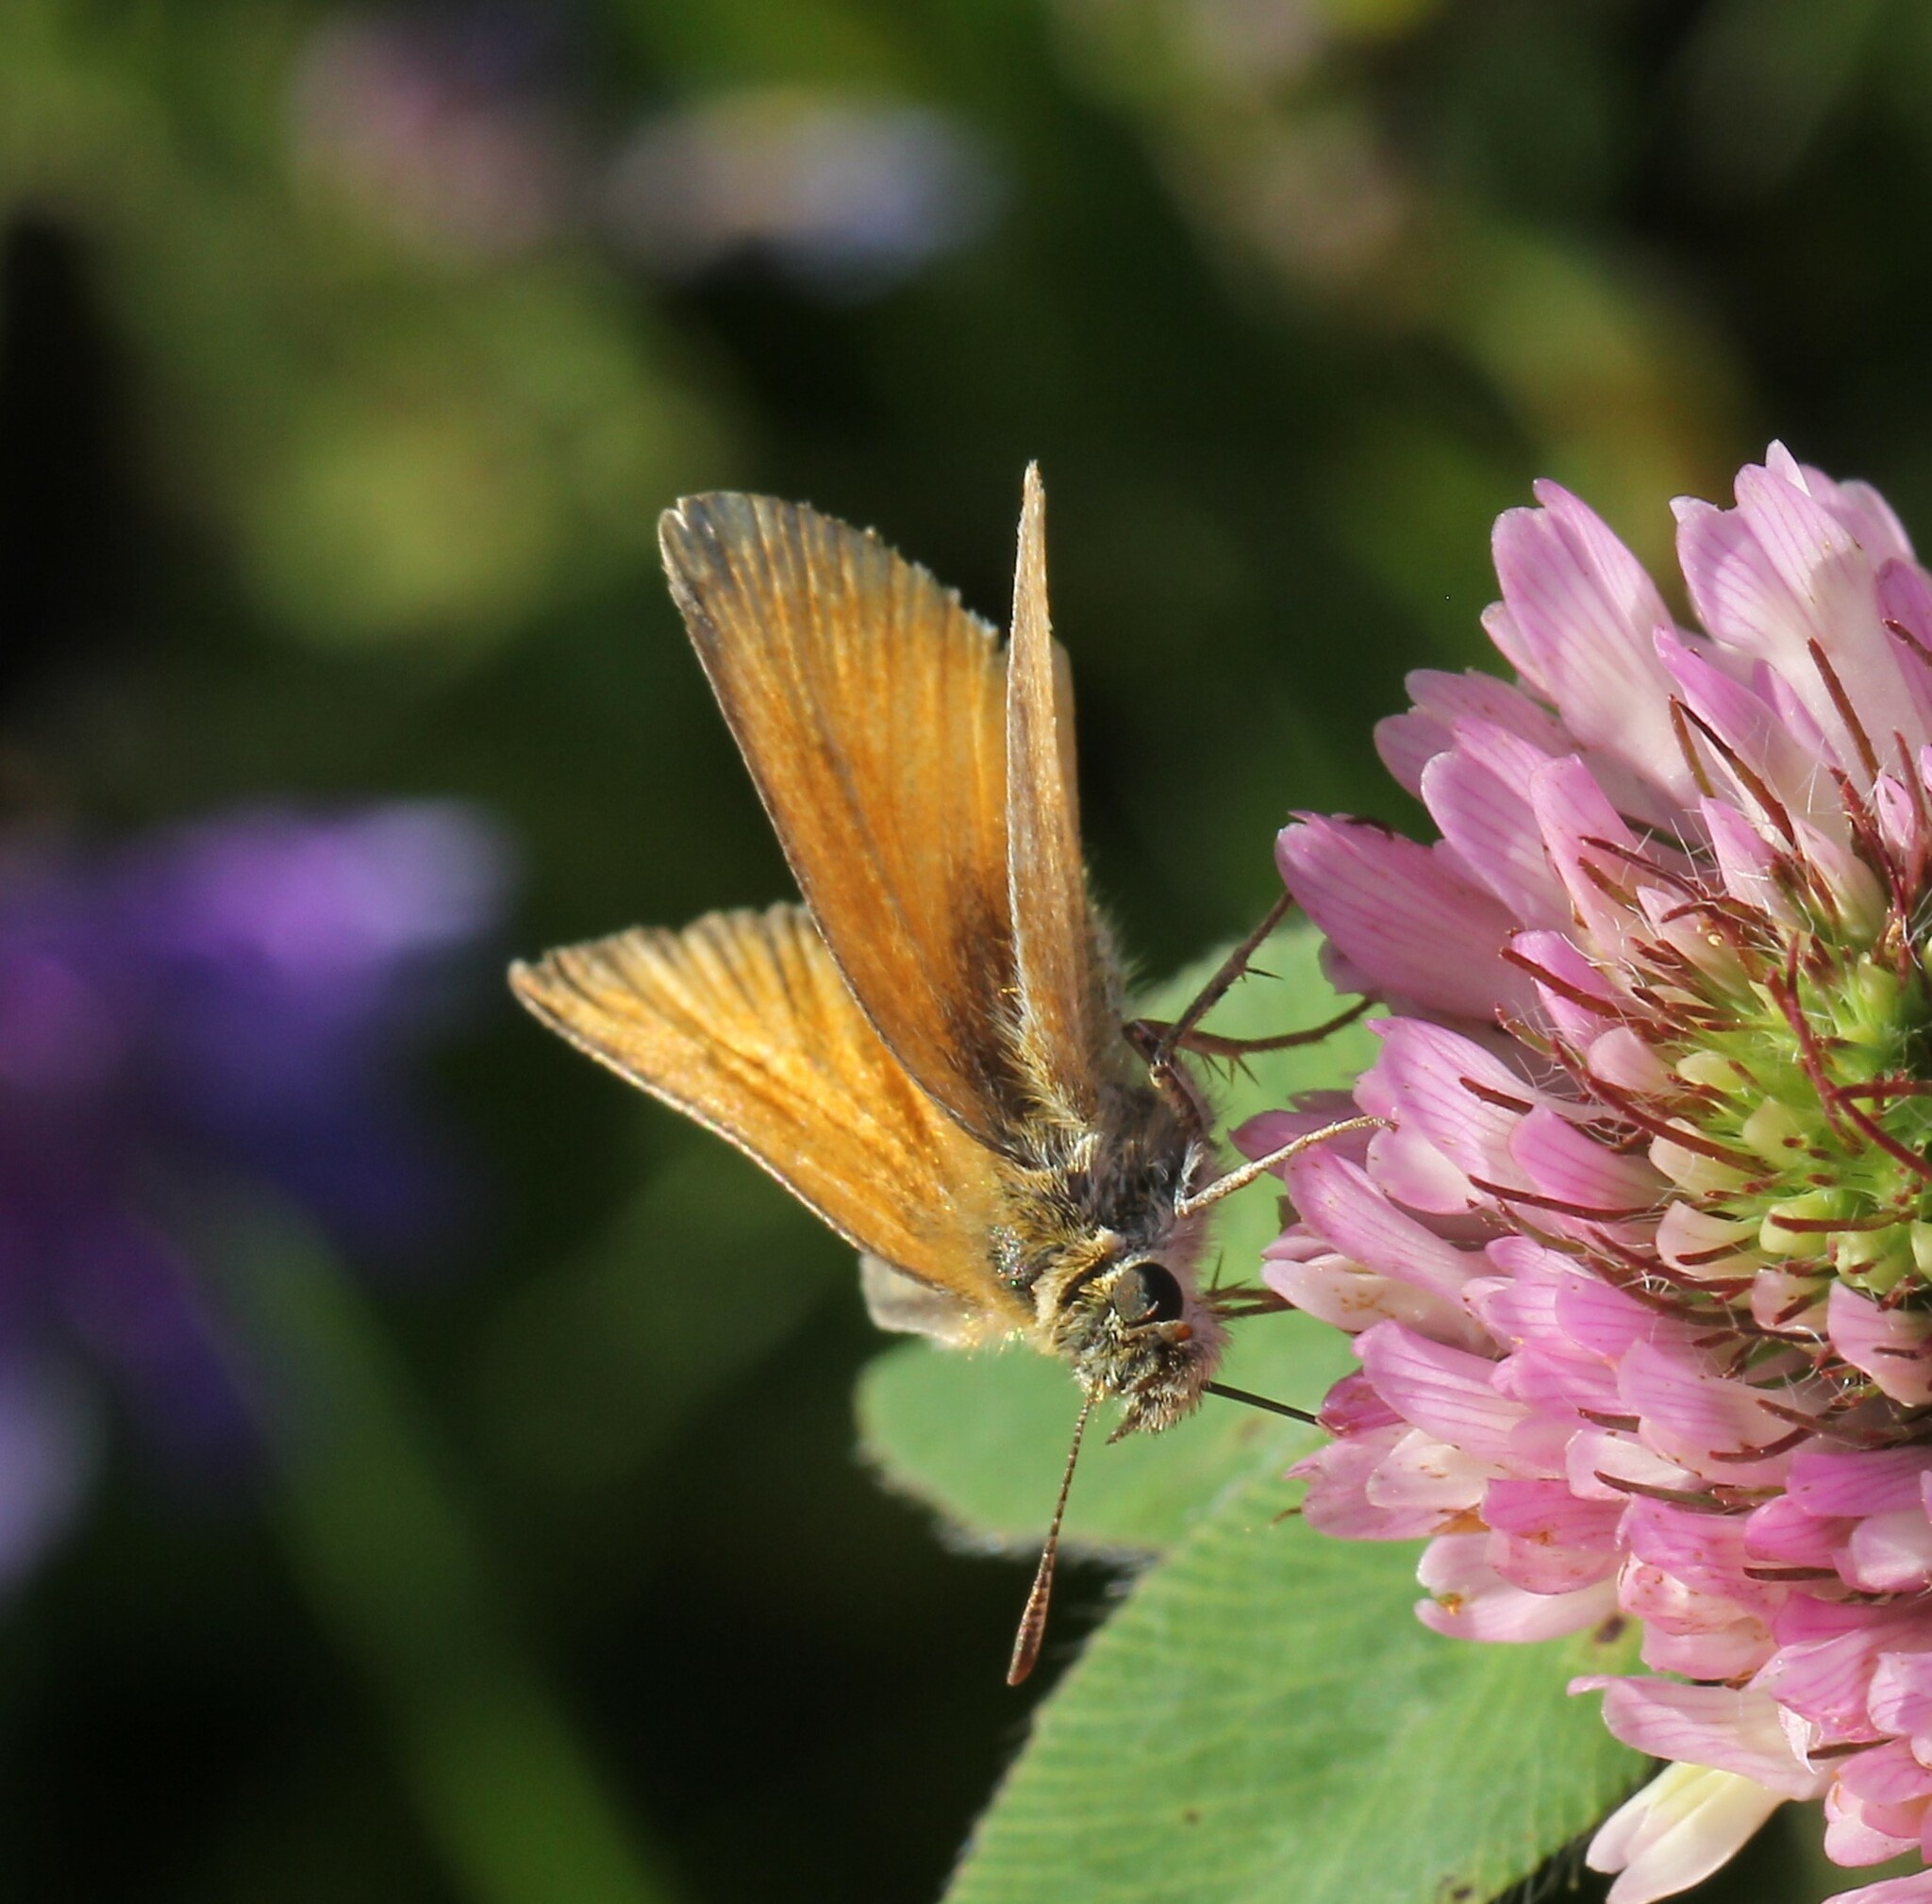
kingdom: Animalia
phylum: Arthropoda
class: Insecta
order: Lepidoptera
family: Hesperiidae
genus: Thymelicus
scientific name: Thymelicus lineola
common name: Essex skipper
